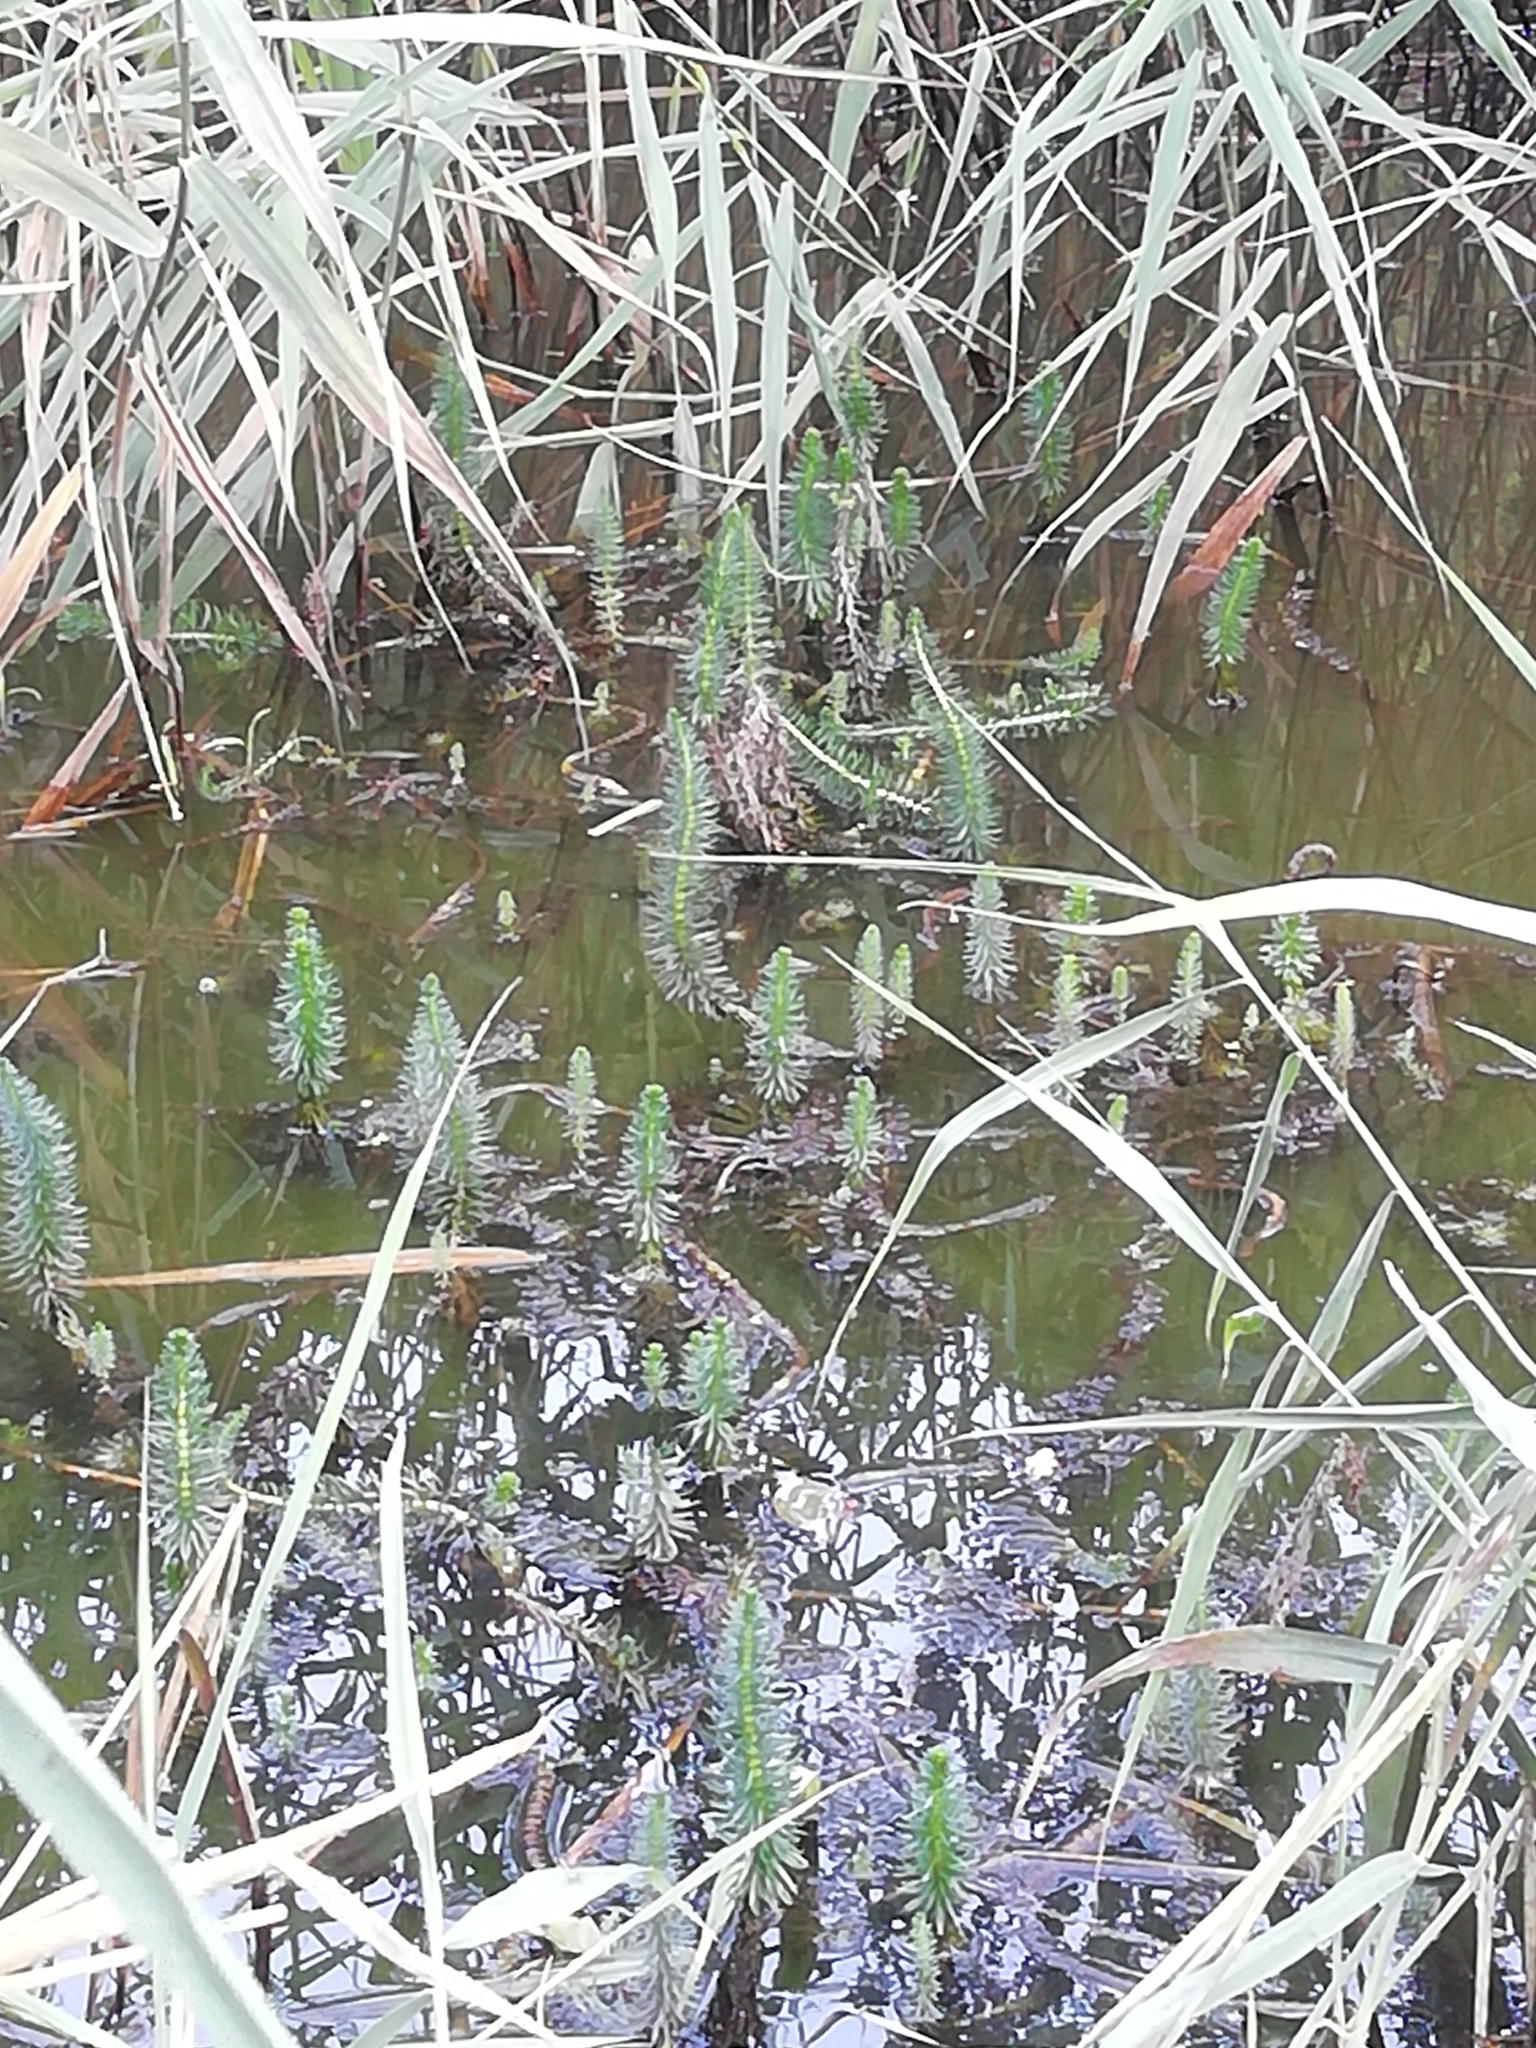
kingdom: Plantae
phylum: Tracheophyta
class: Magnoliopsida
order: Lamiales
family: Plantaginaceae
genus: Hippuris
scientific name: Hippuris vulgaris
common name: Mare's-tail
